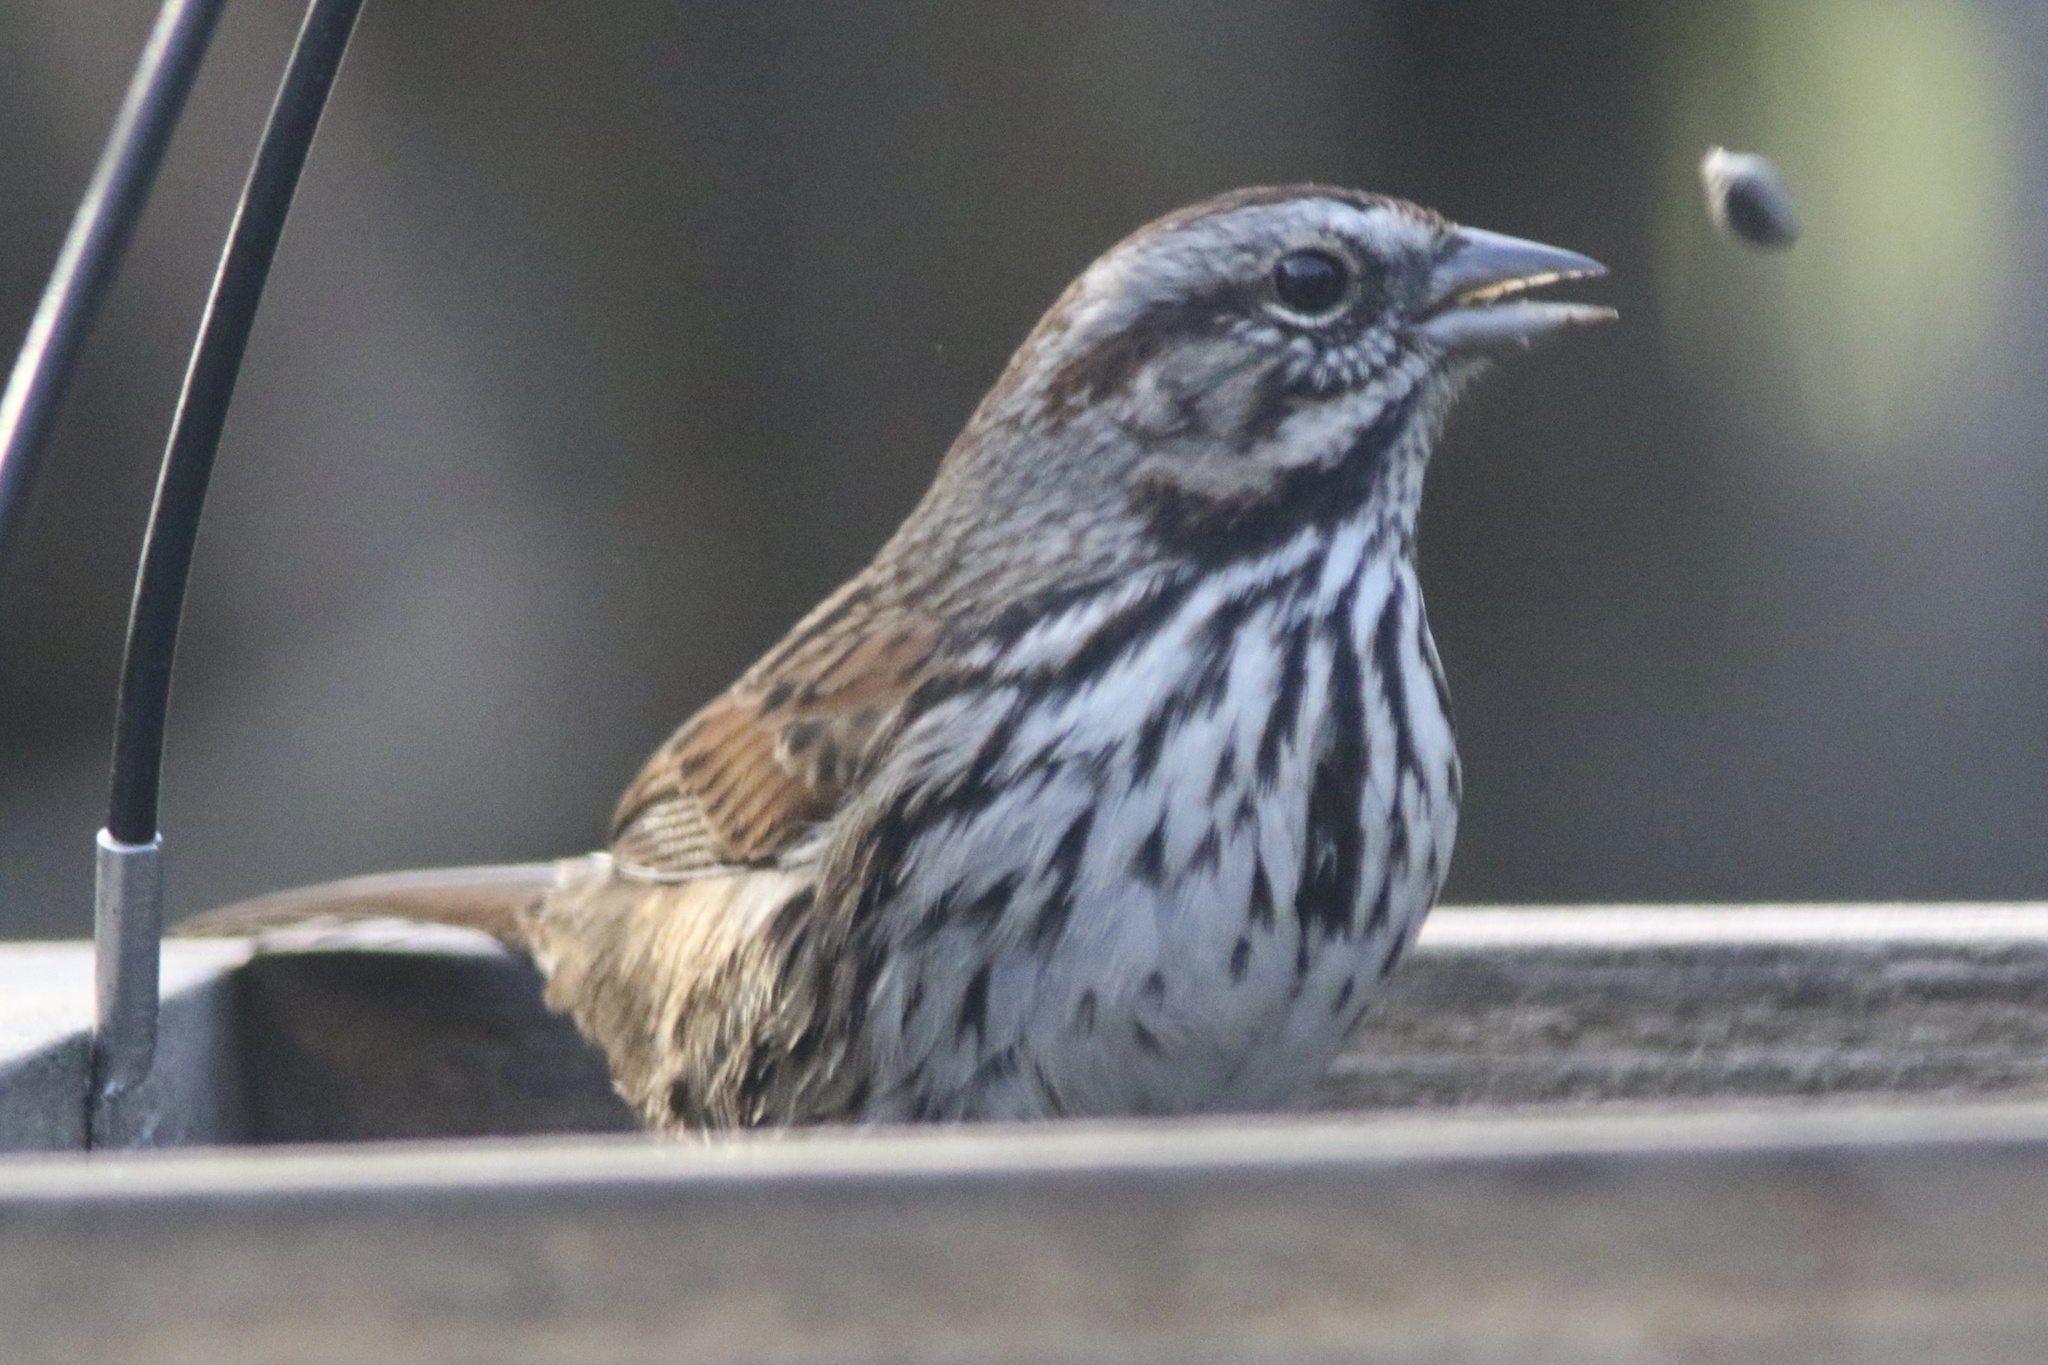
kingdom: Animalia
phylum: Chordata
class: Aves
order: Passeriformes
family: Passerellidae
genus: Melospiza
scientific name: Melospiza melodia
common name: Song sparrow
